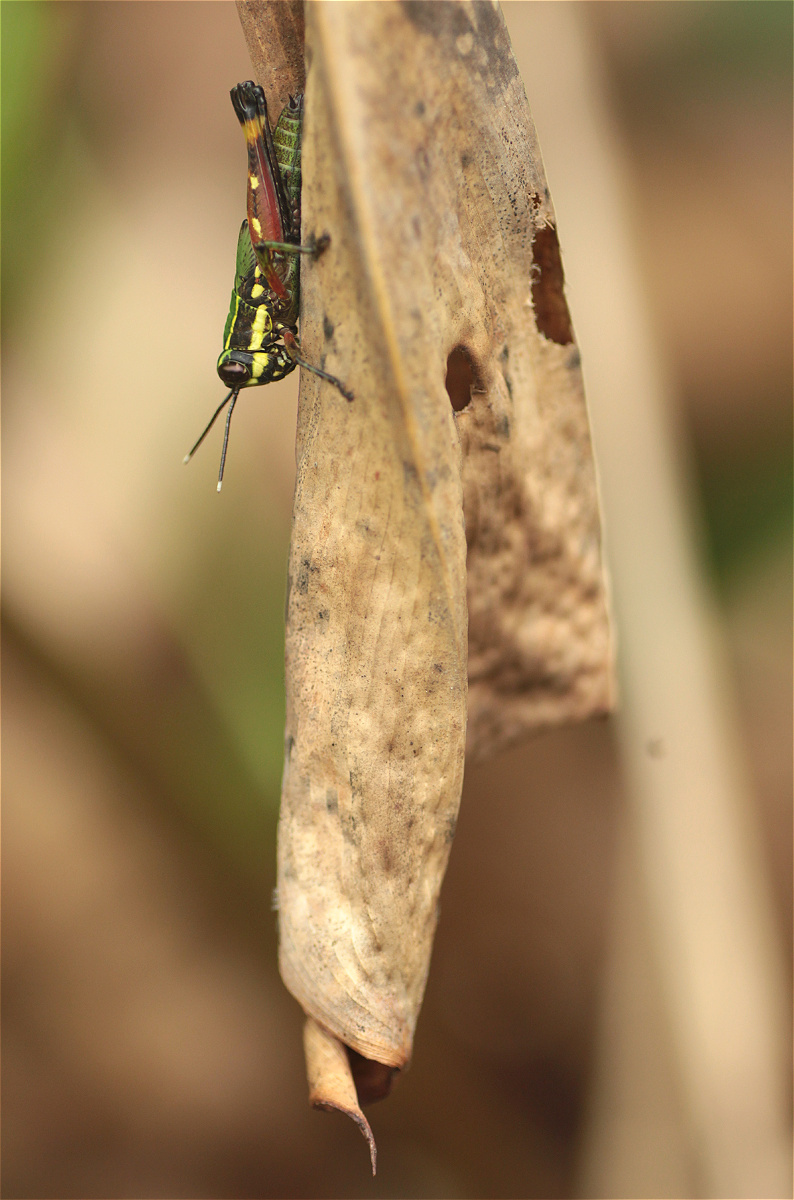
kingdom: Animalia
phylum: Arthropoda
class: Insecta
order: Orthoptera
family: Acrididae
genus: Tetrataenia
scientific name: Tetrataenia surinama
